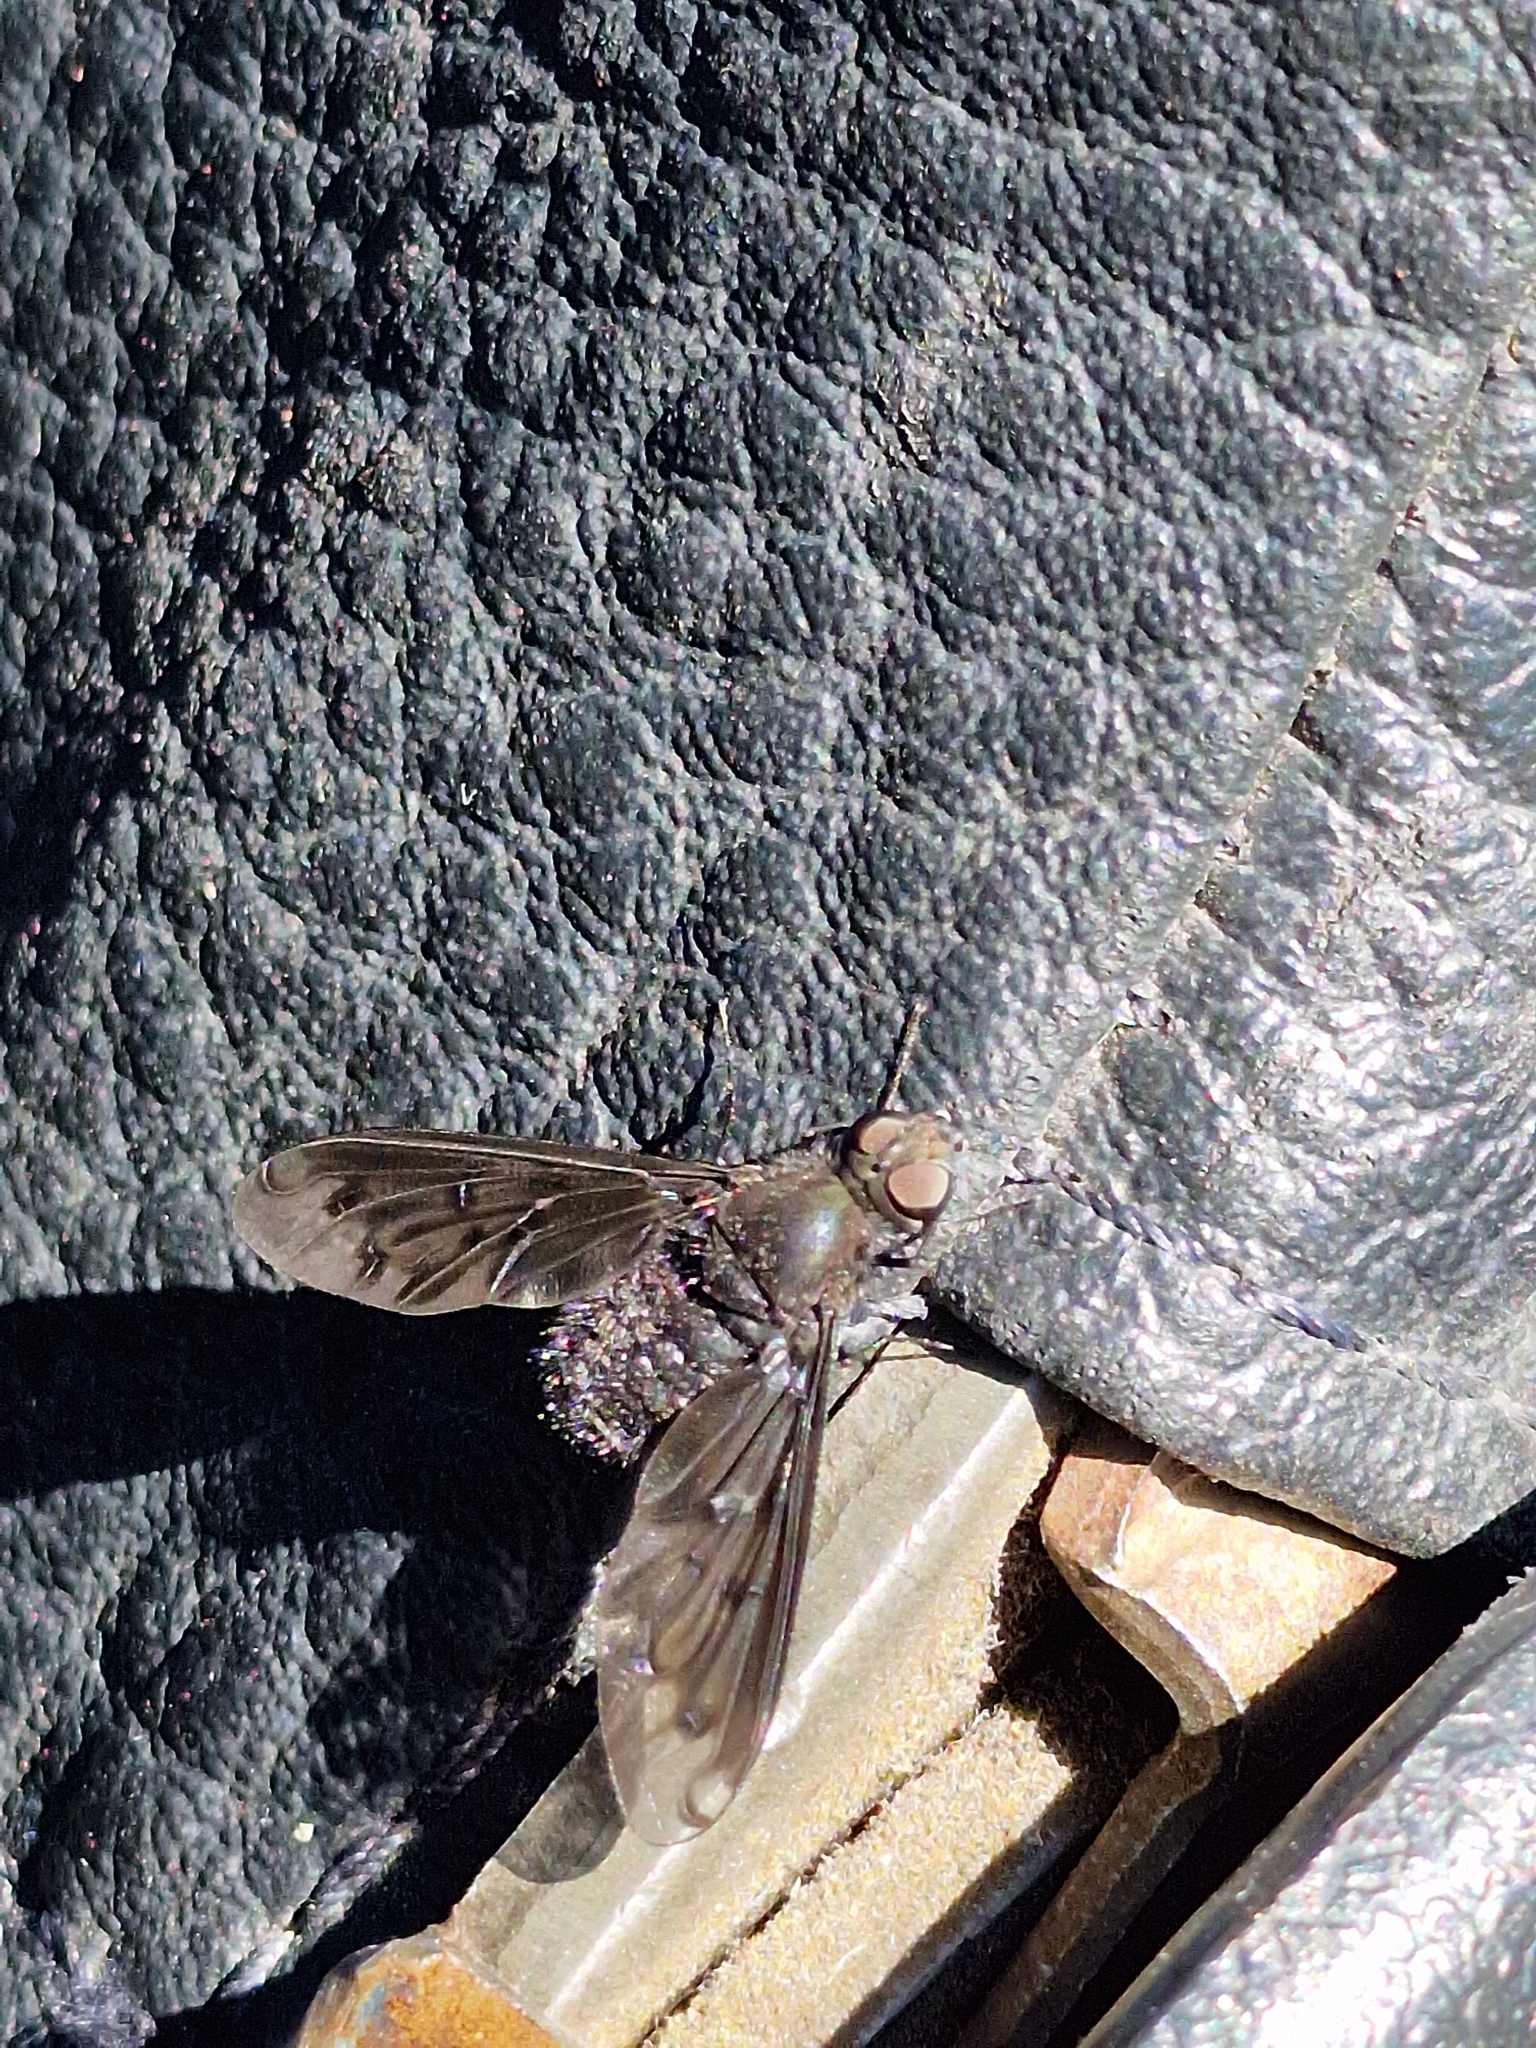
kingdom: Animalia
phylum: Arthropoda
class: Insecta
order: Diptera
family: Bombyliidae
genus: Anthrax
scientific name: Anthrax anthrax
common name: Anthracite bee-fly
